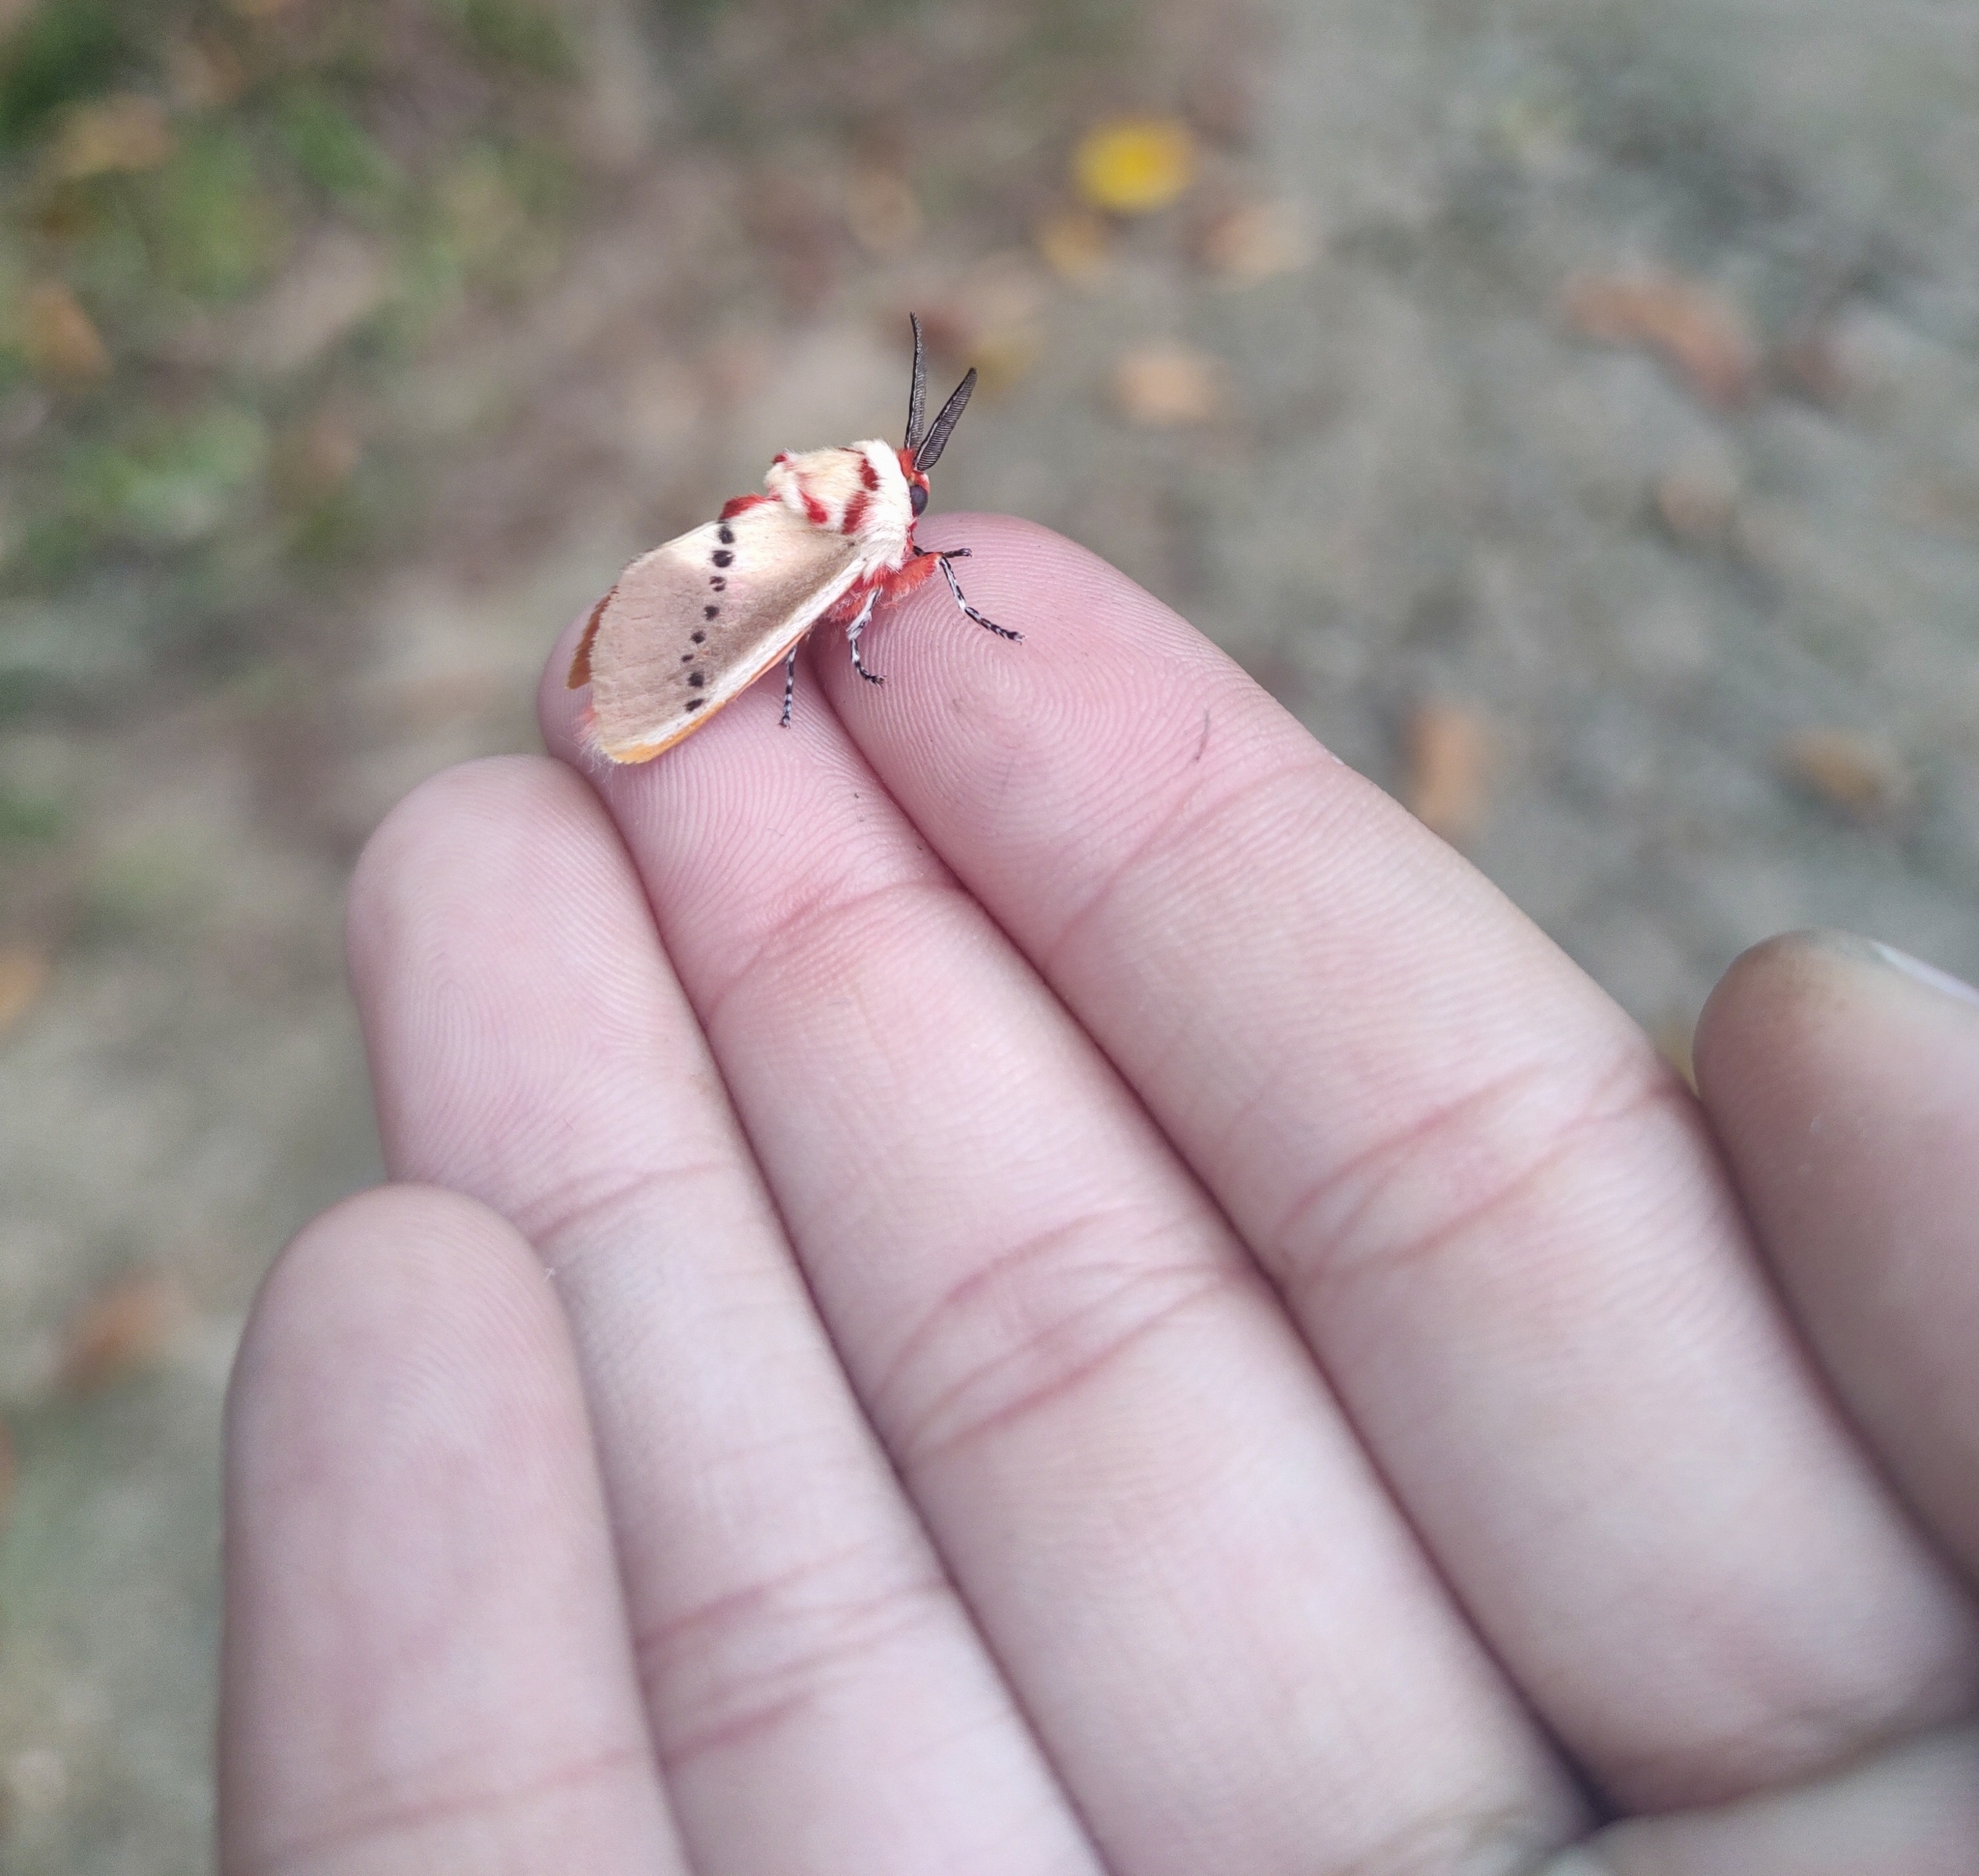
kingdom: Animalia
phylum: Arthropoda
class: Insecta
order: Lepidoptera
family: Megalopygidae
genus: Trosia
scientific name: Trosia fumosa
